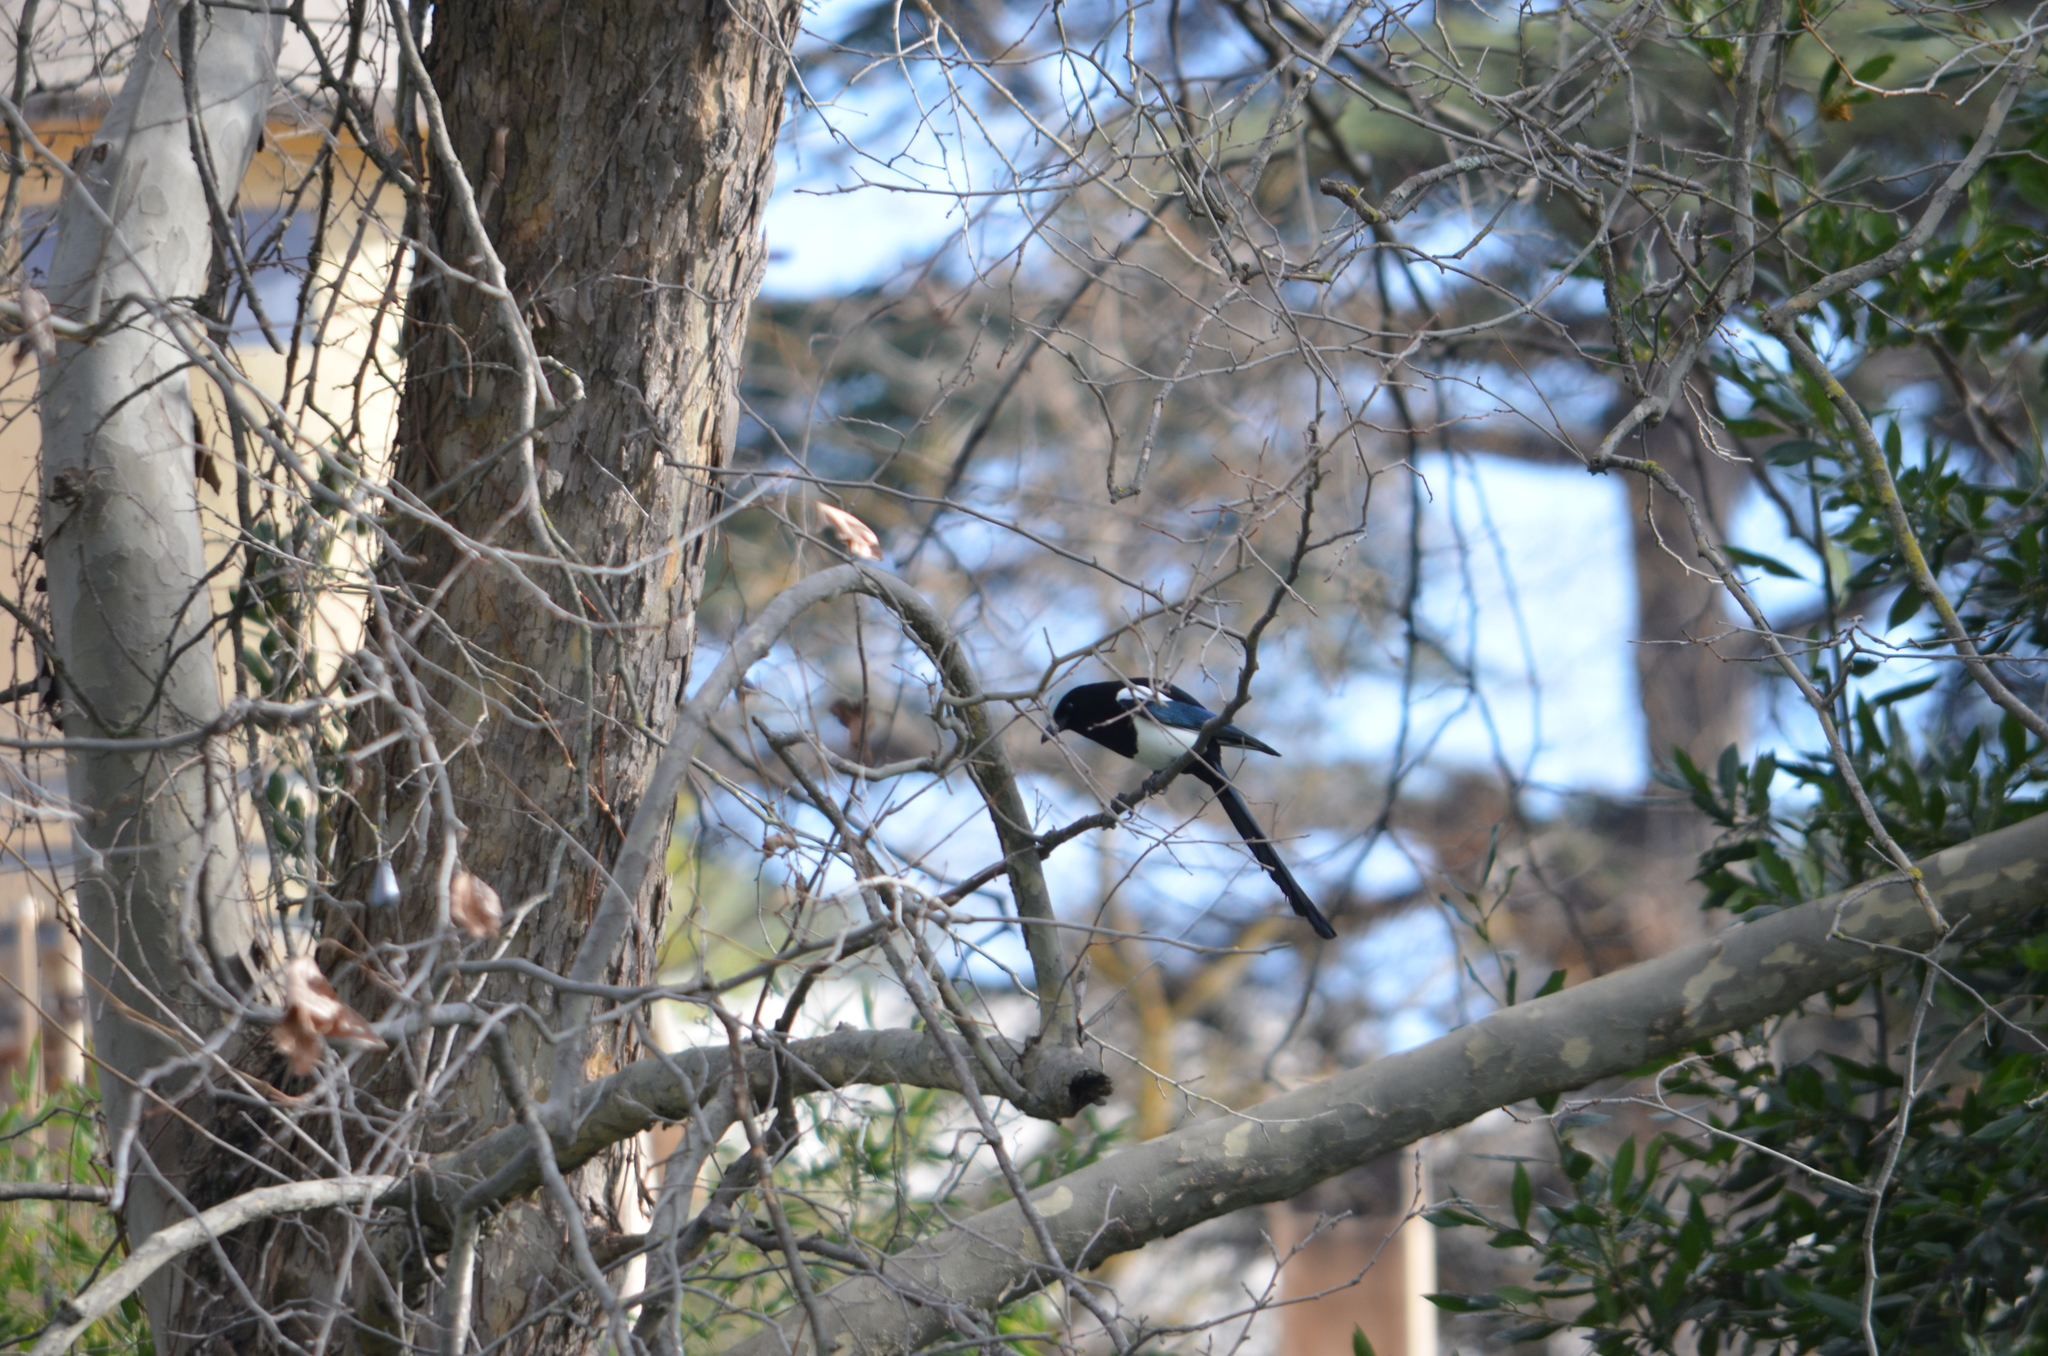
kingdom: Animalia
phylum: Chordata
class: Aves
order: Passeriformes
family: Corvidae
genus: Pica
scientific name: Pica pica
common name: Eurasian magpie
